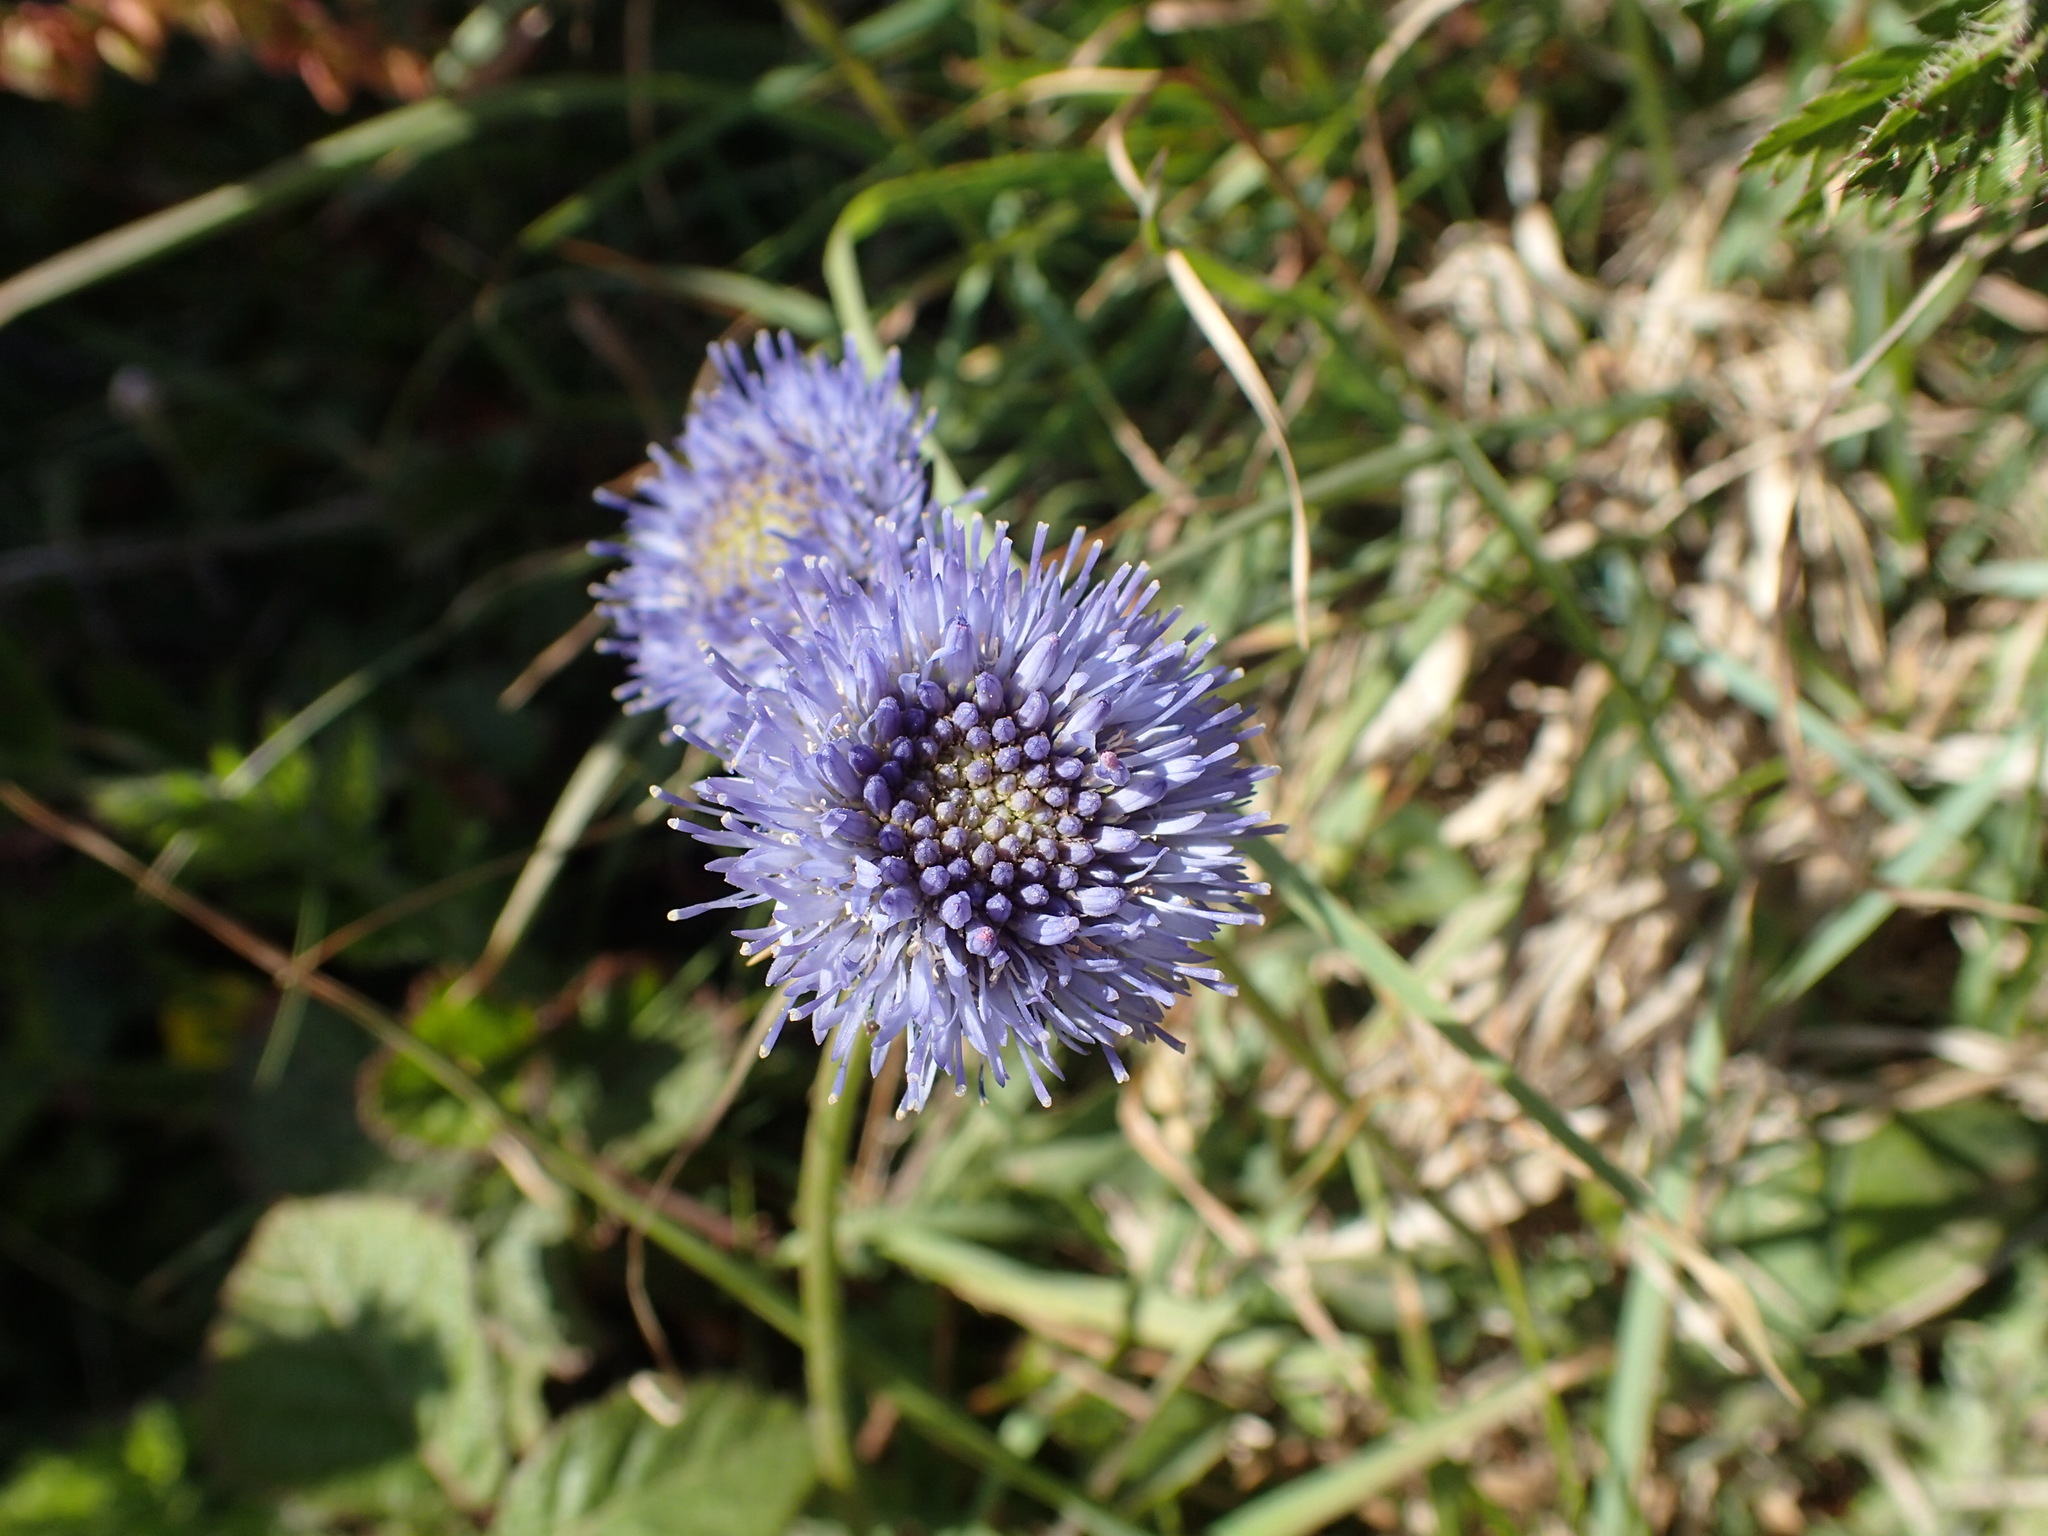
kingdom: Plantae
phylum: Tracheophyta
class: Magnoliopsida
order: Asterales
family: Campanulaceae
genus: Jasione
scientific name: Jasione montana
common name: Sheep's-bit
